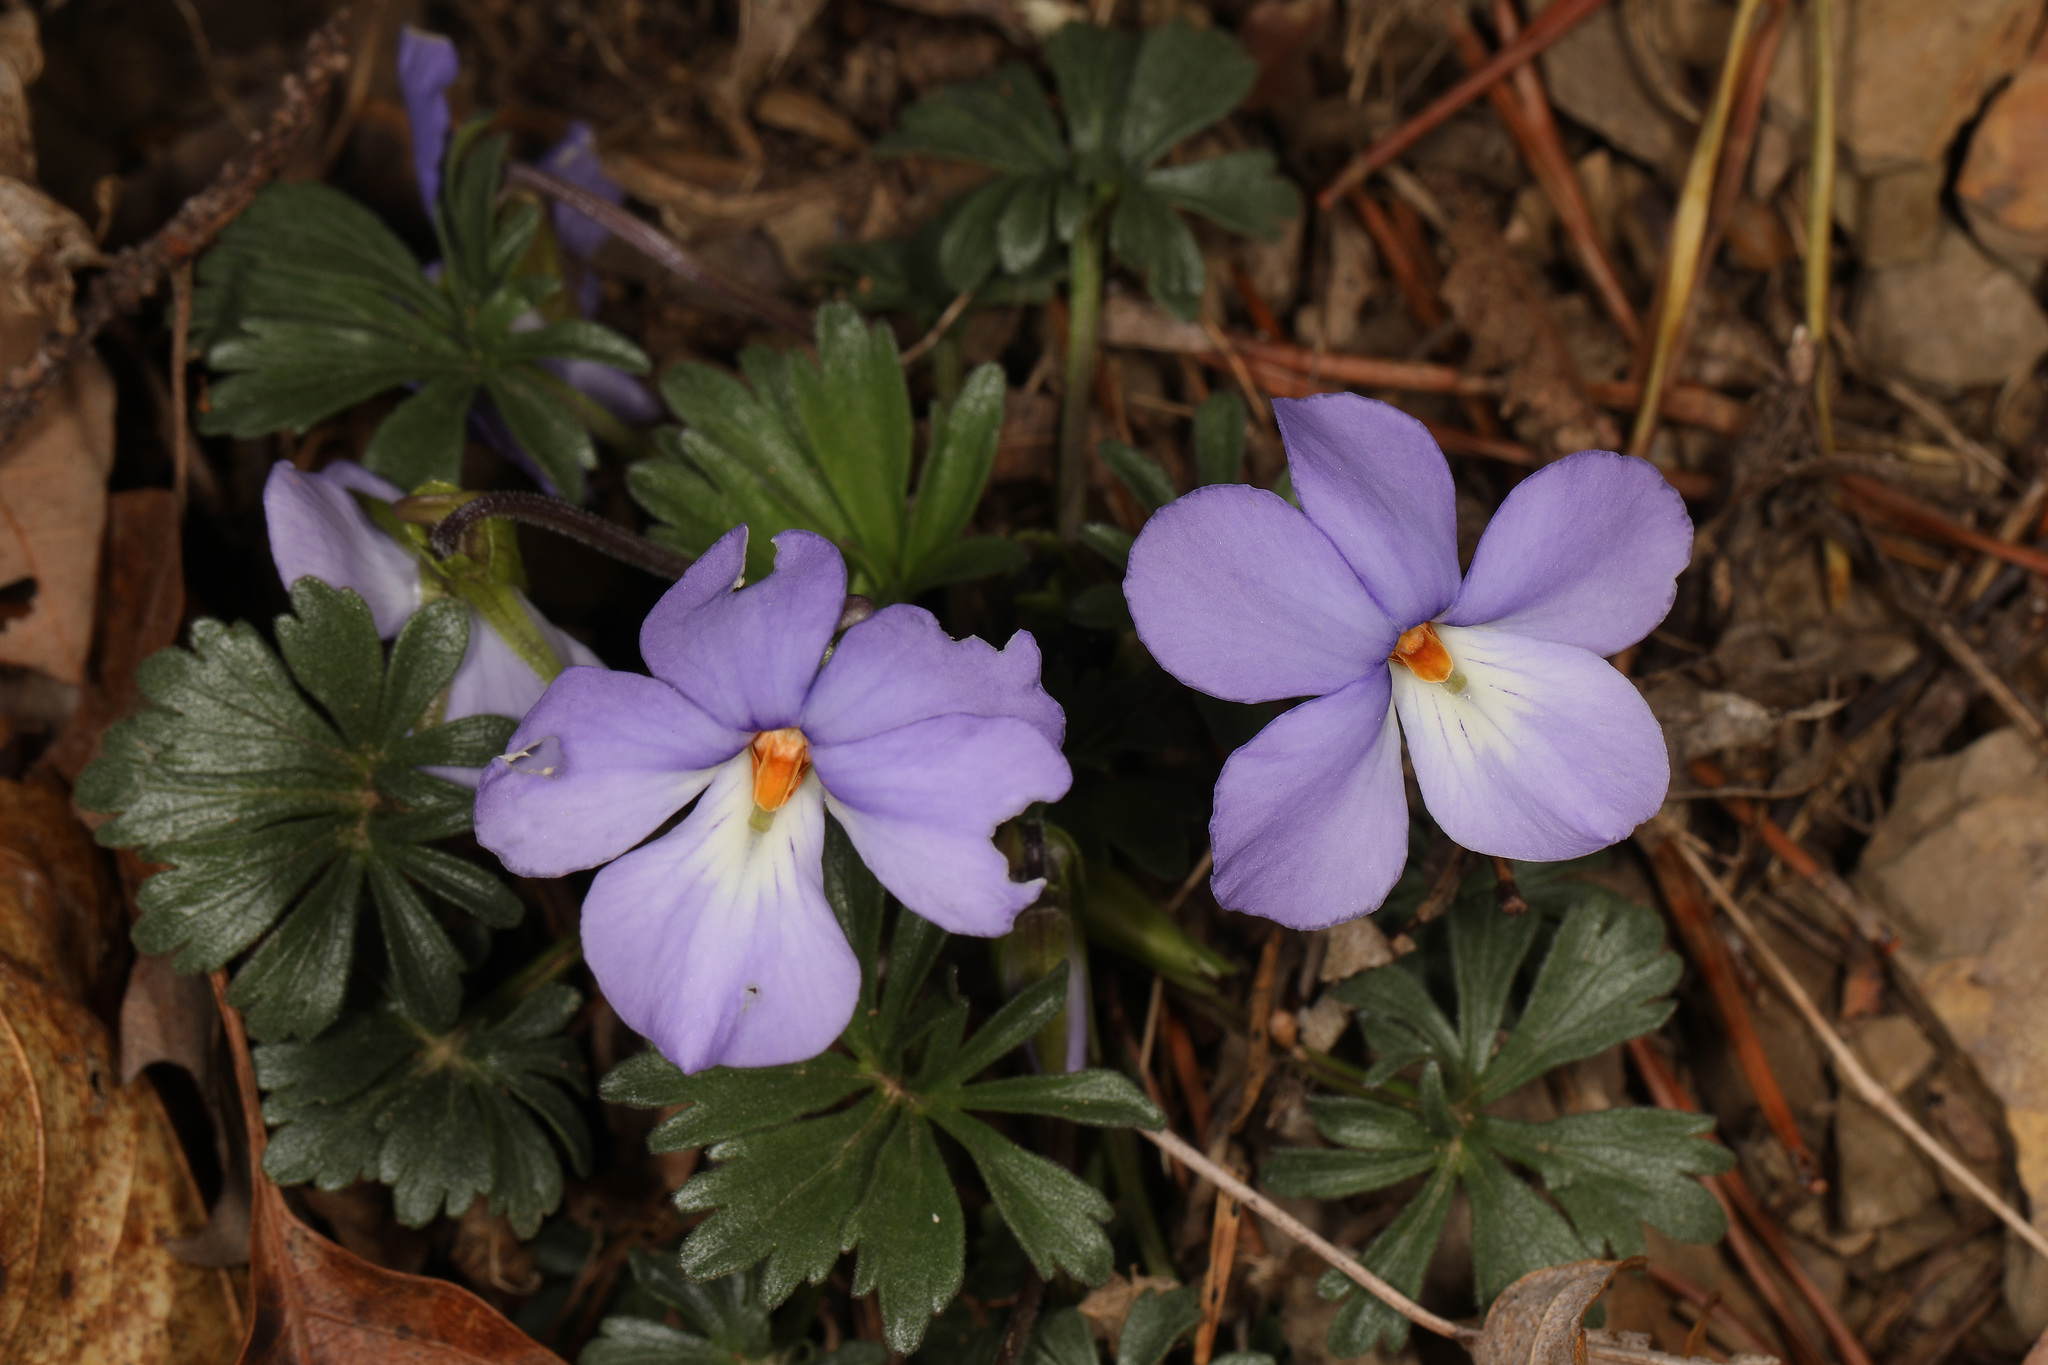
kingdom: Plantae
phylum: Tracheophyta
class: Magnoliopsida
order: Malpighiales
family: Violaceae
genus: Viola
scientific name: Viola pedata
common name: Pansy violet
